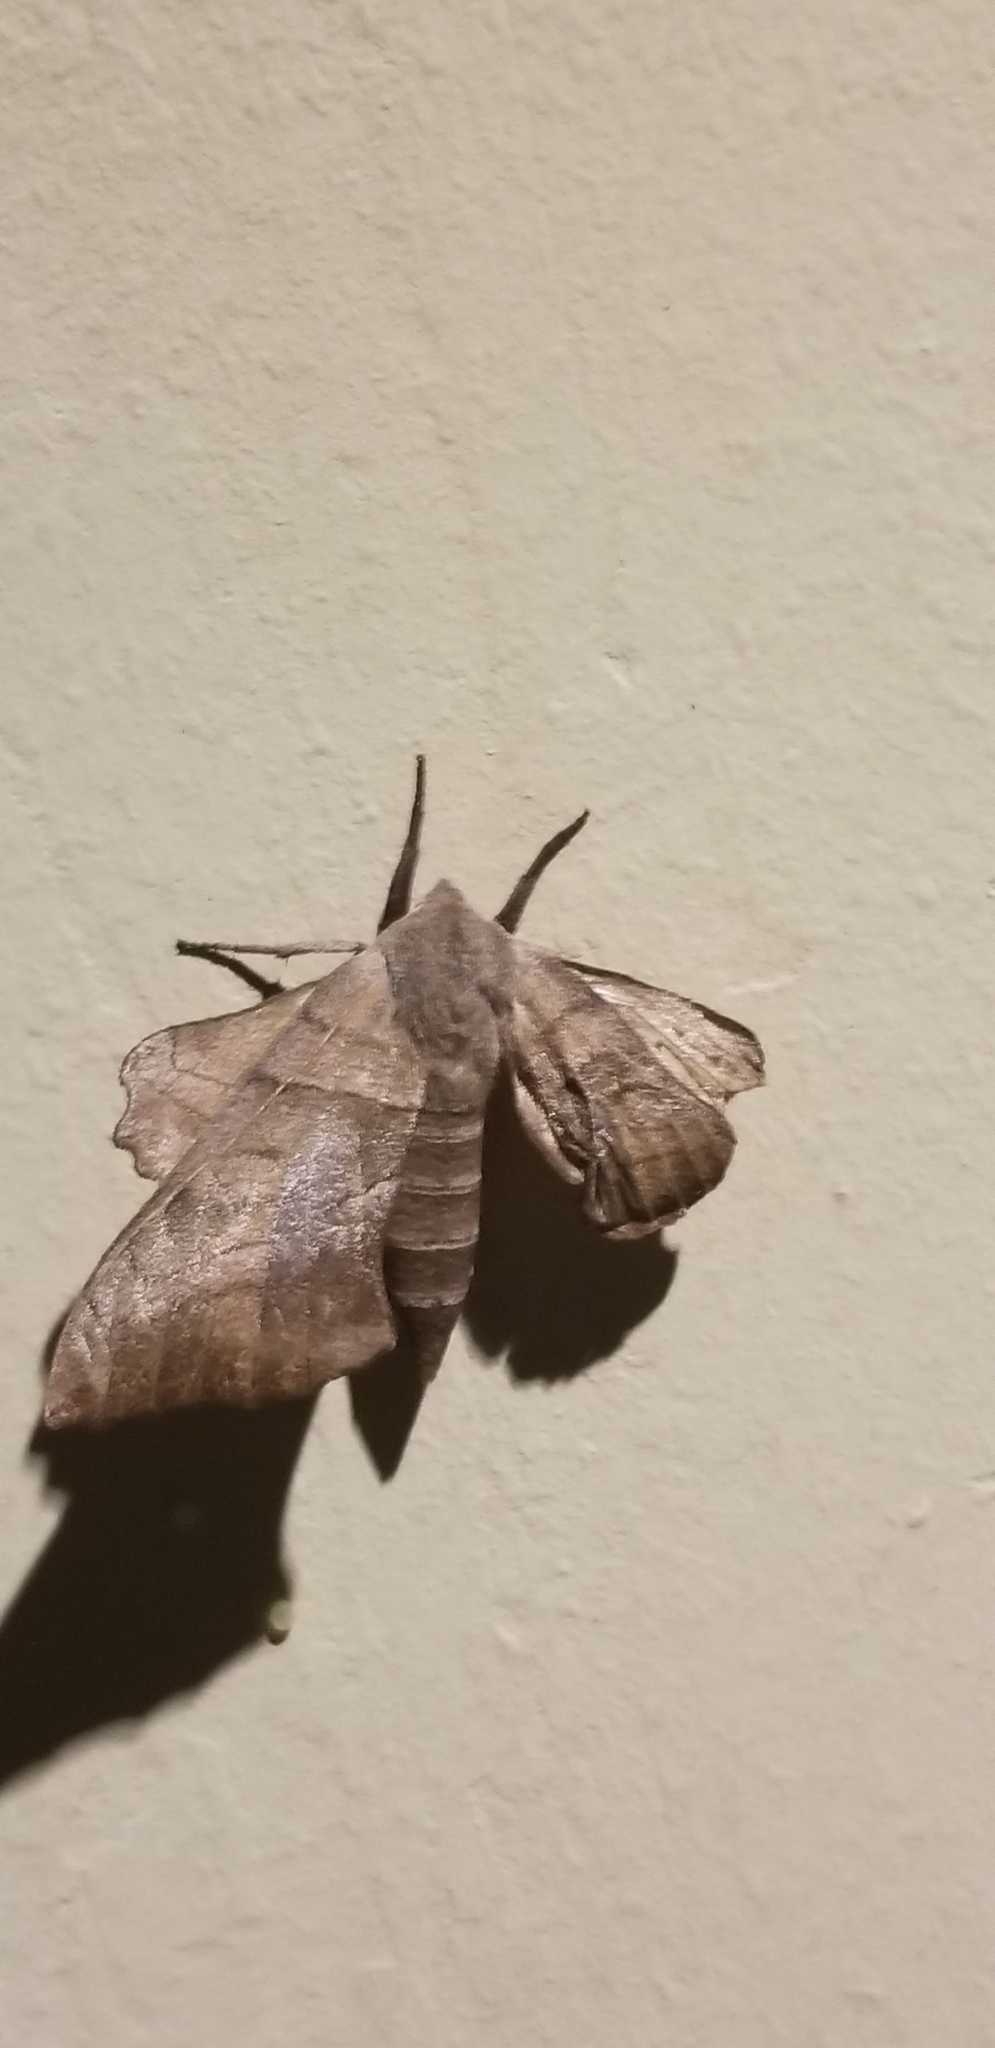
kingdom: Animalia
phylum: Arthropoda
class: Insecta
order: Lepidoptera
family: Sphingidae
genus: Amorpha
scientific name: Amorpha juglandis
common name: Walnut sphinx
